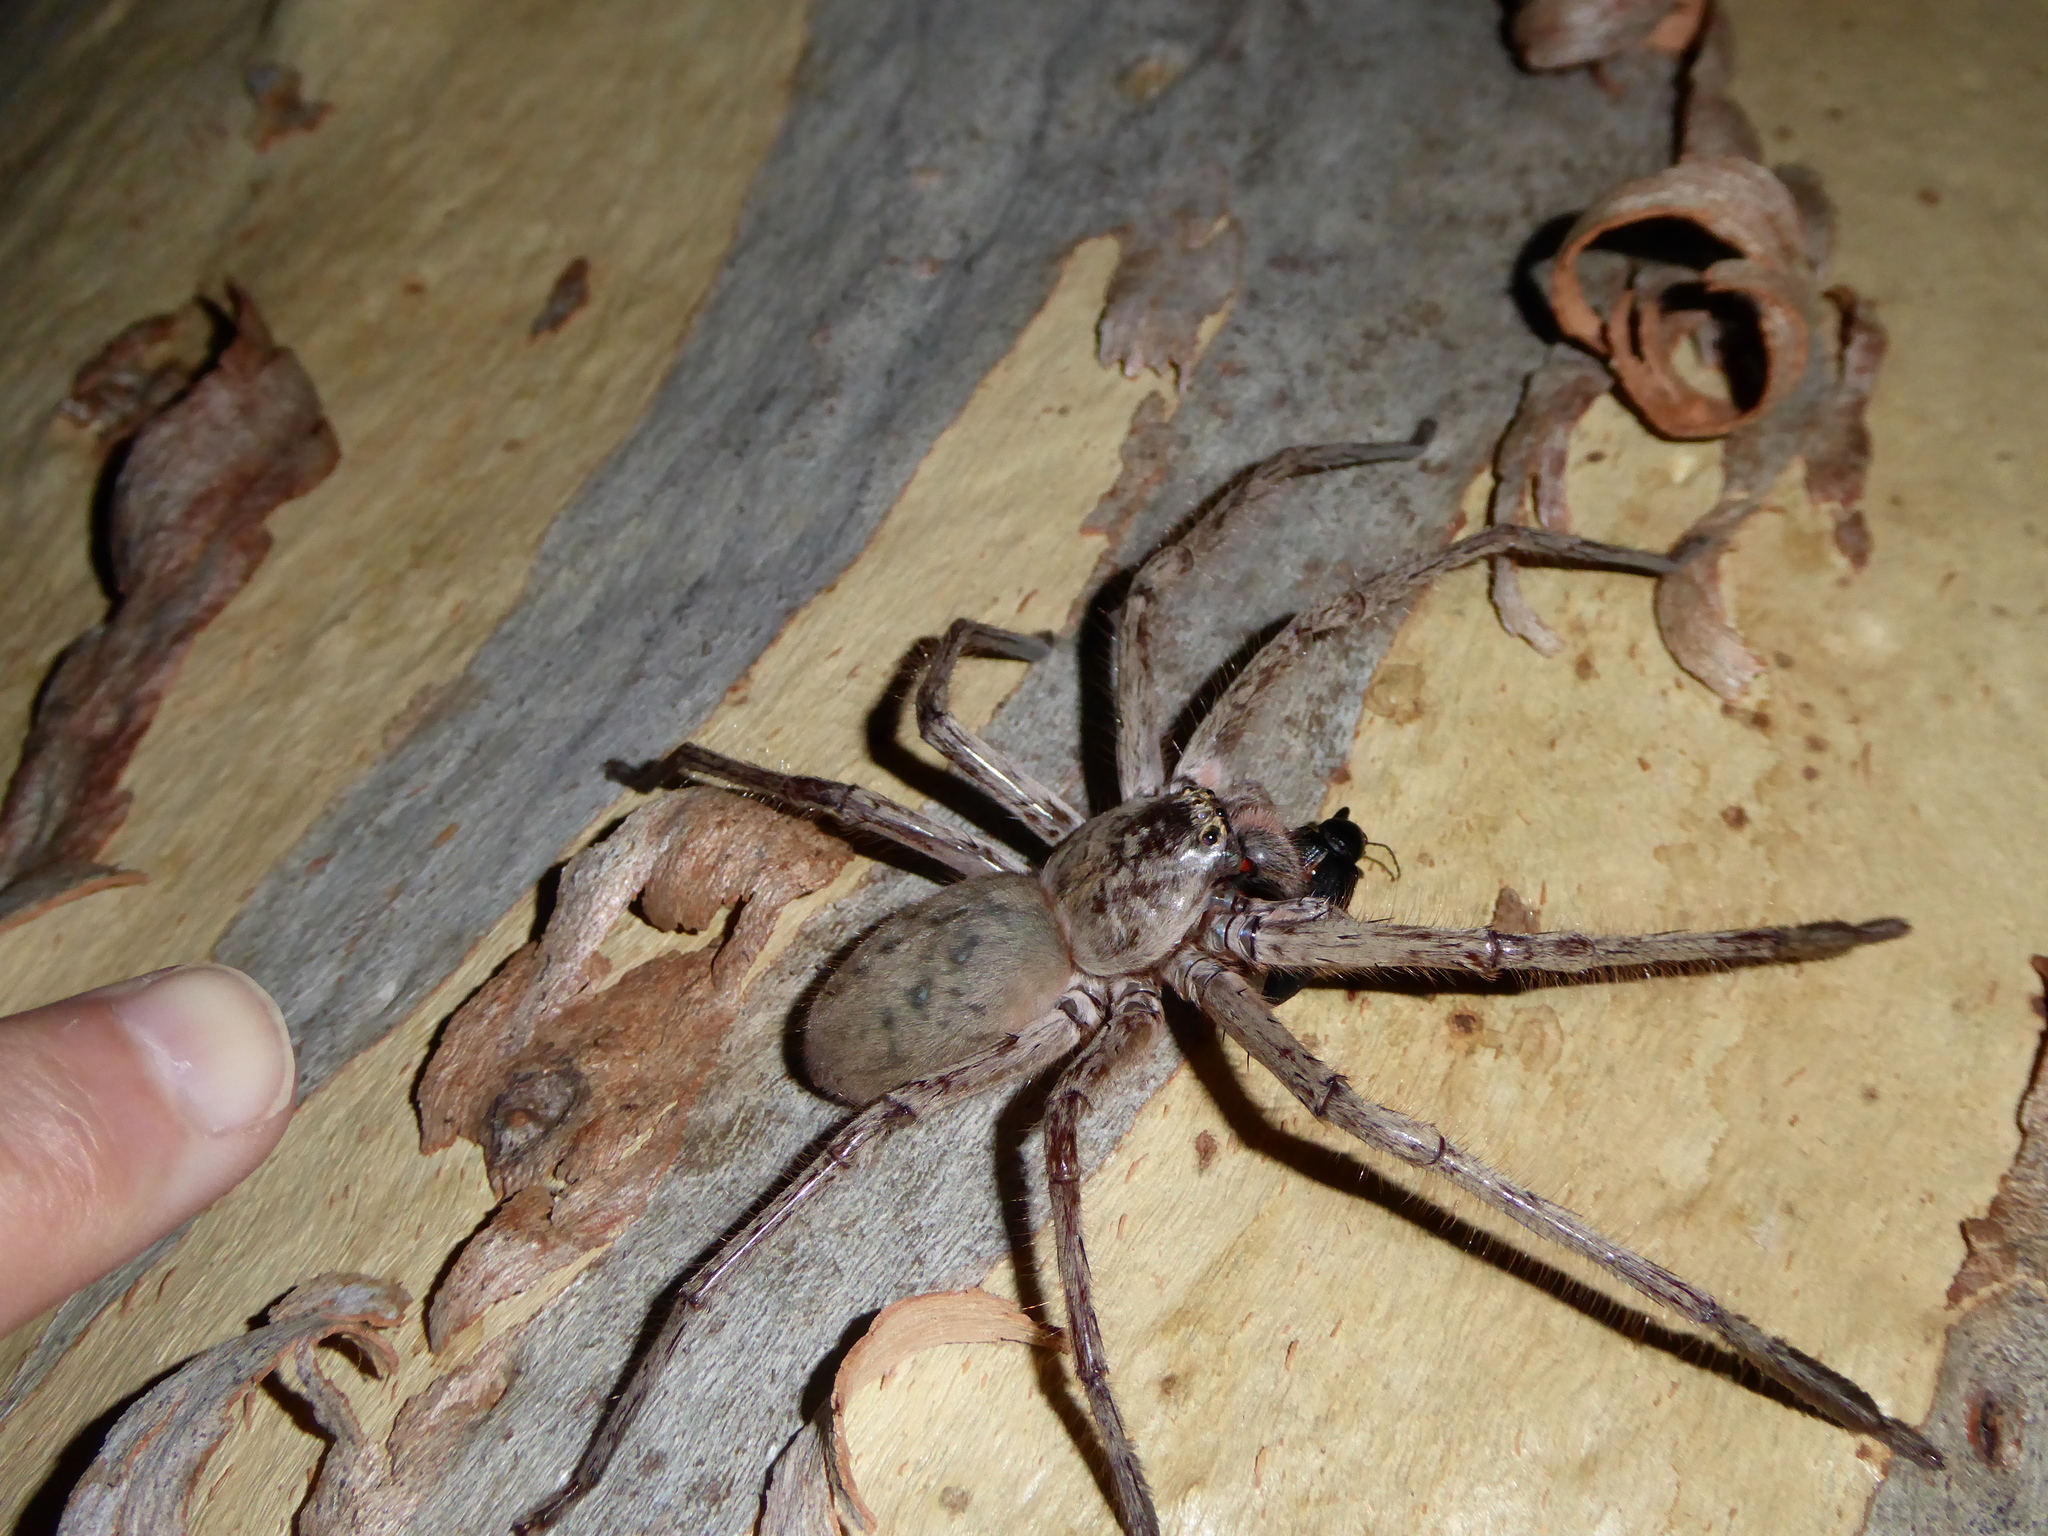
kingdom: Animalia
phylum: Arthropoda
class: Arachnida
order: Araneae
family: Sparassidae
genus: Typostola
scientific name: Typostola barbata
